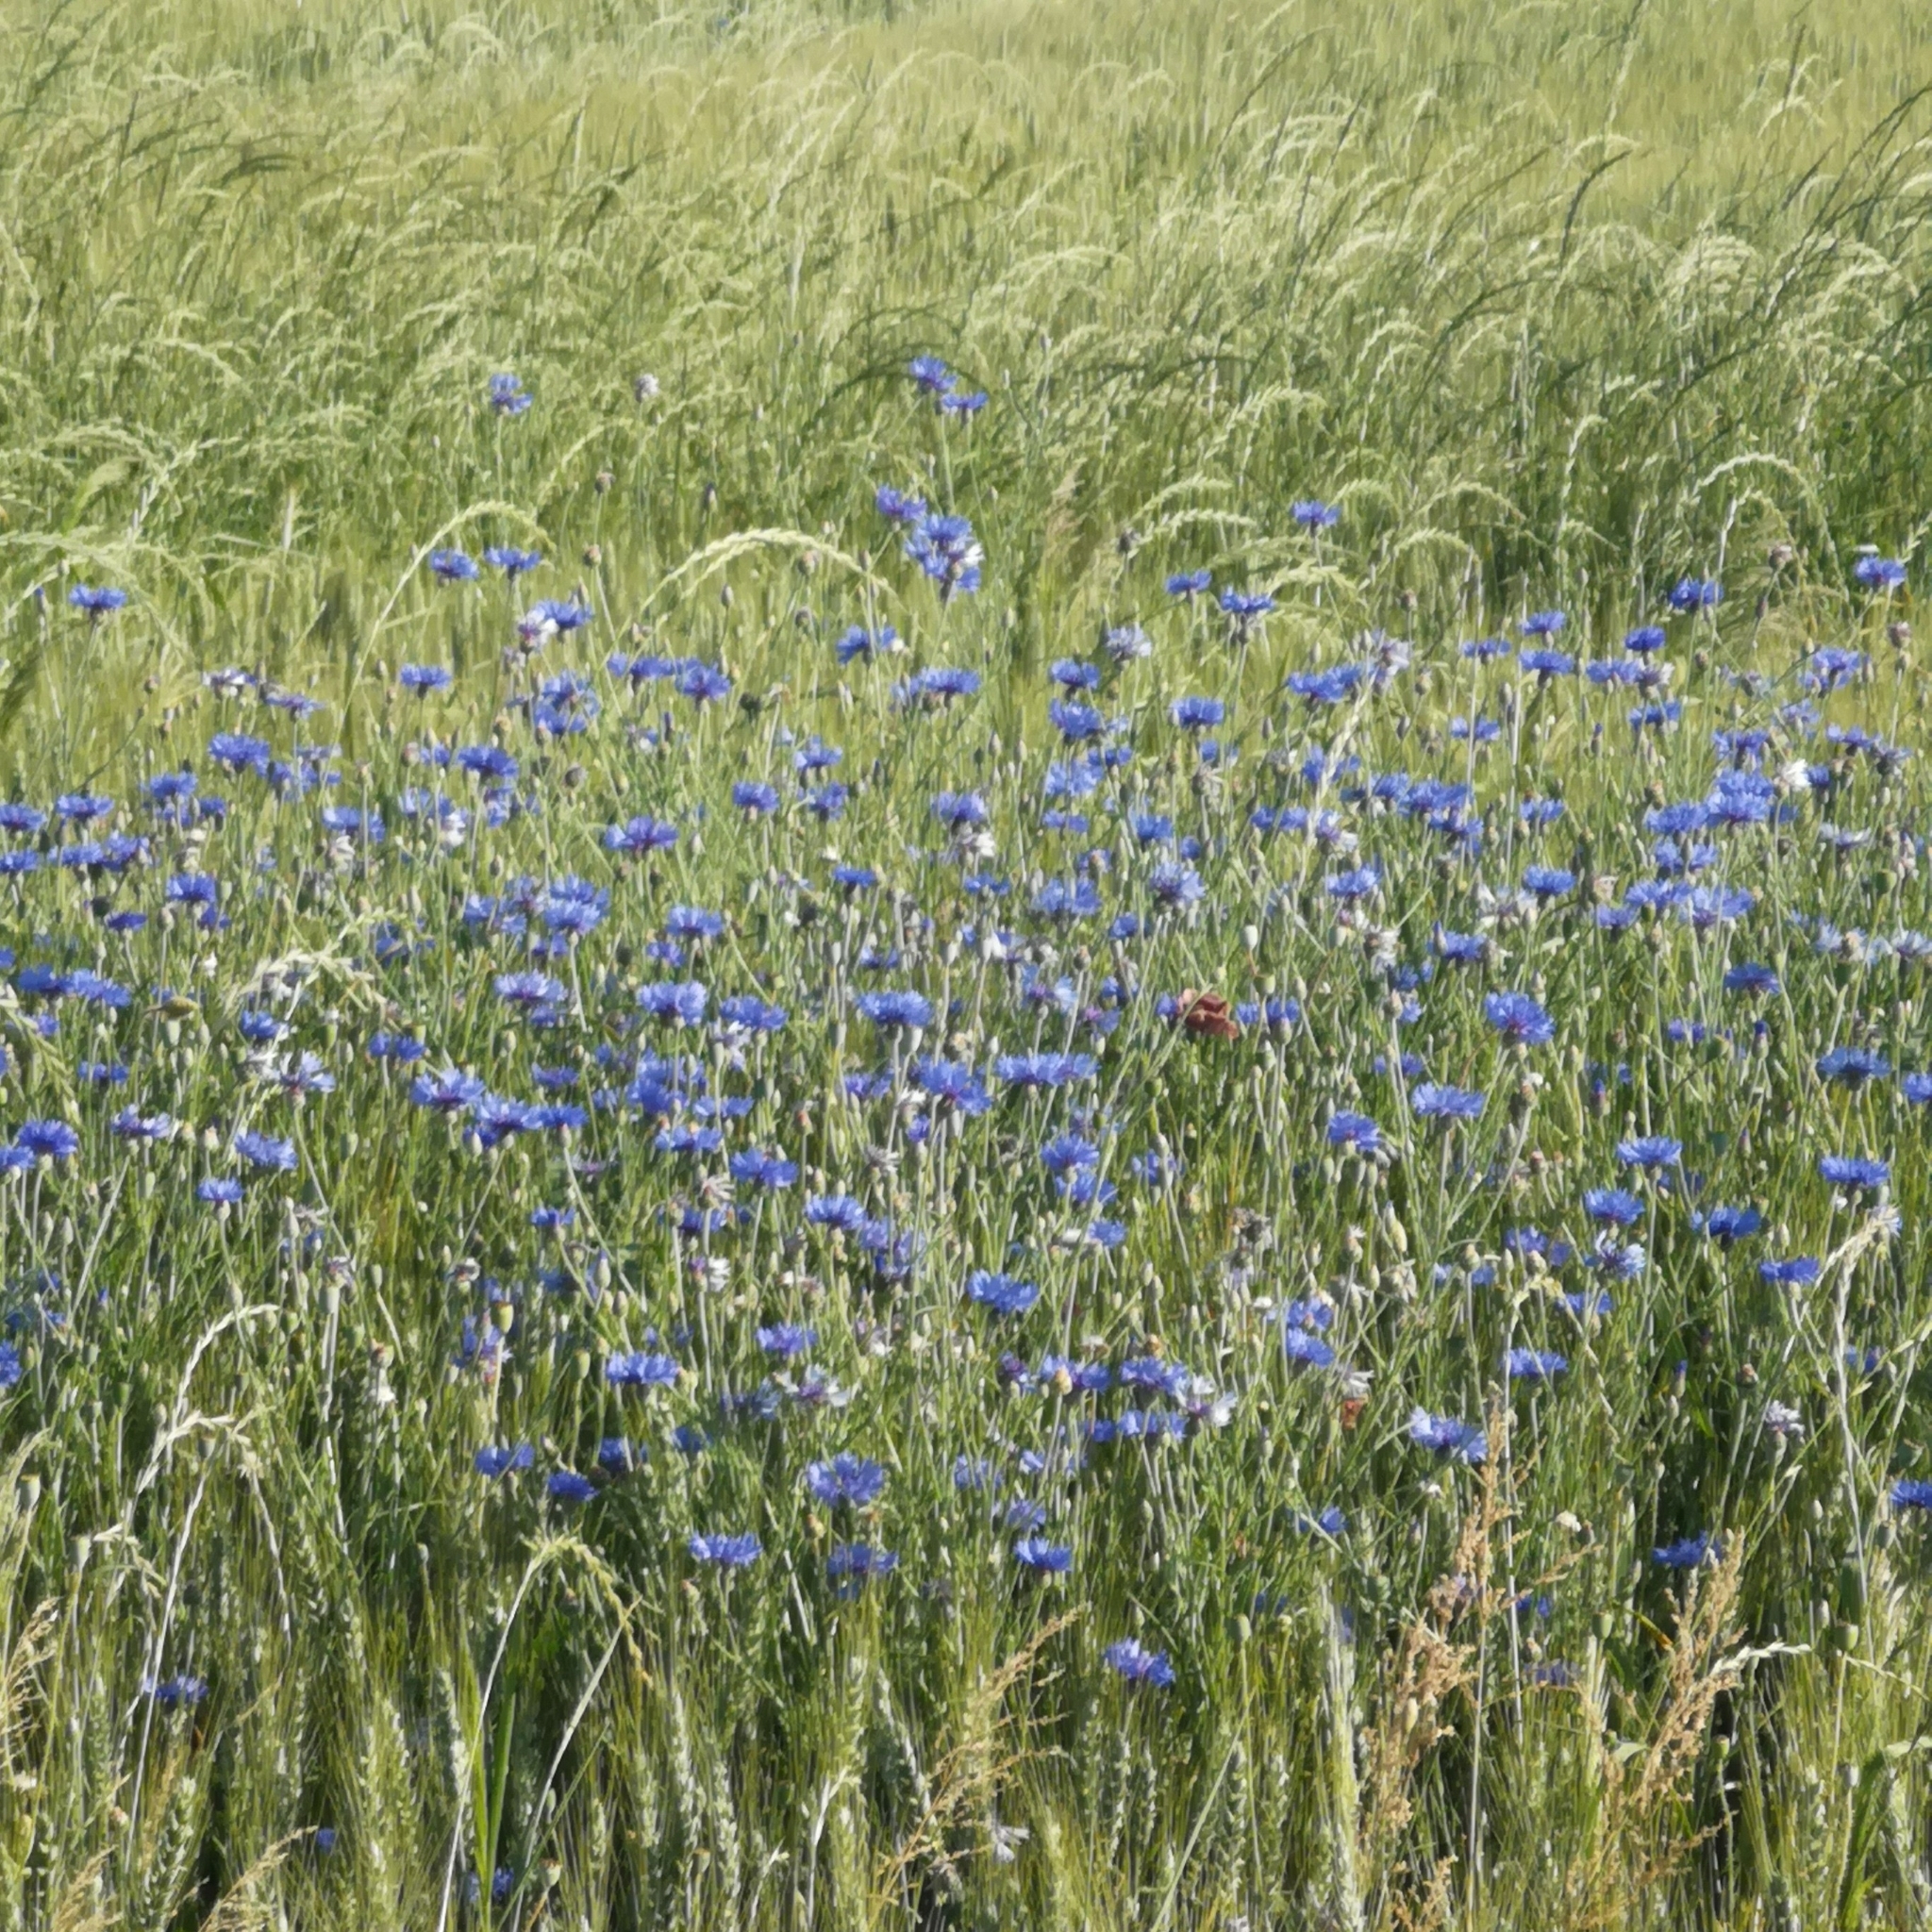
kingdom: Plantae
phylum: Tracheophyta
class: Magnoliopsida
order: Asterales
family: Asteraceae
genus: Centaurea
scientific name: Centaurea cyanus
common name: Cornflower
